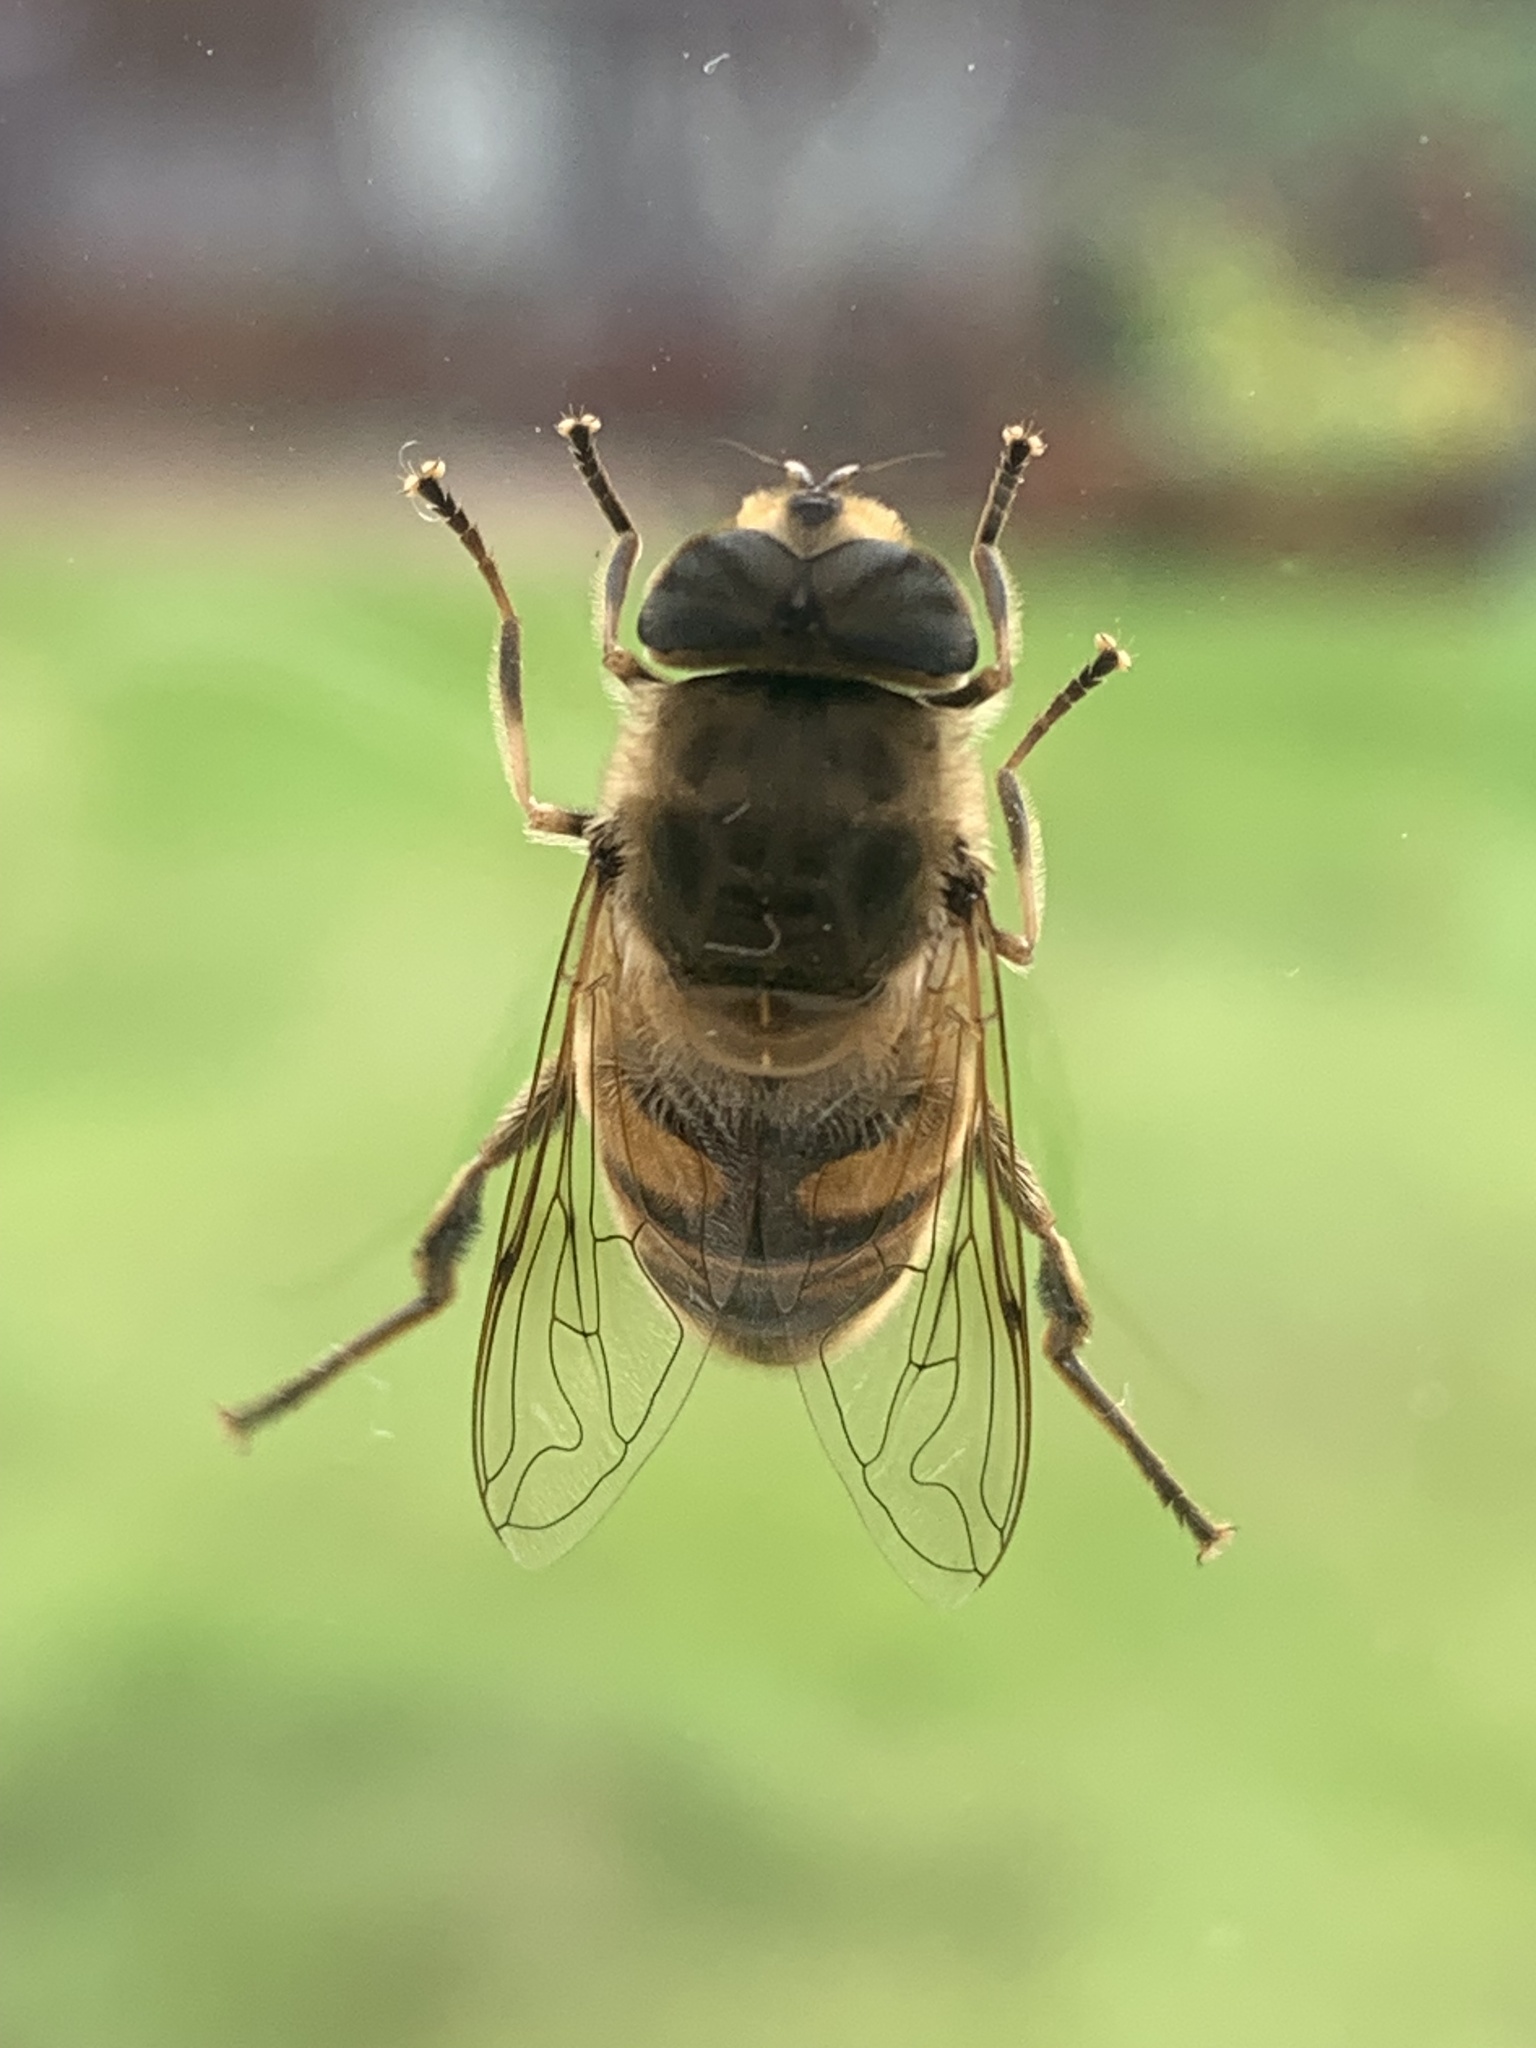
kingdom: Animalia
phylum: Arthropoda
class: Insecta
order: Diptera
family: Syrphidae
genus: Eristalis
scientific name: Eristalis tenax
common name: Drone fly
